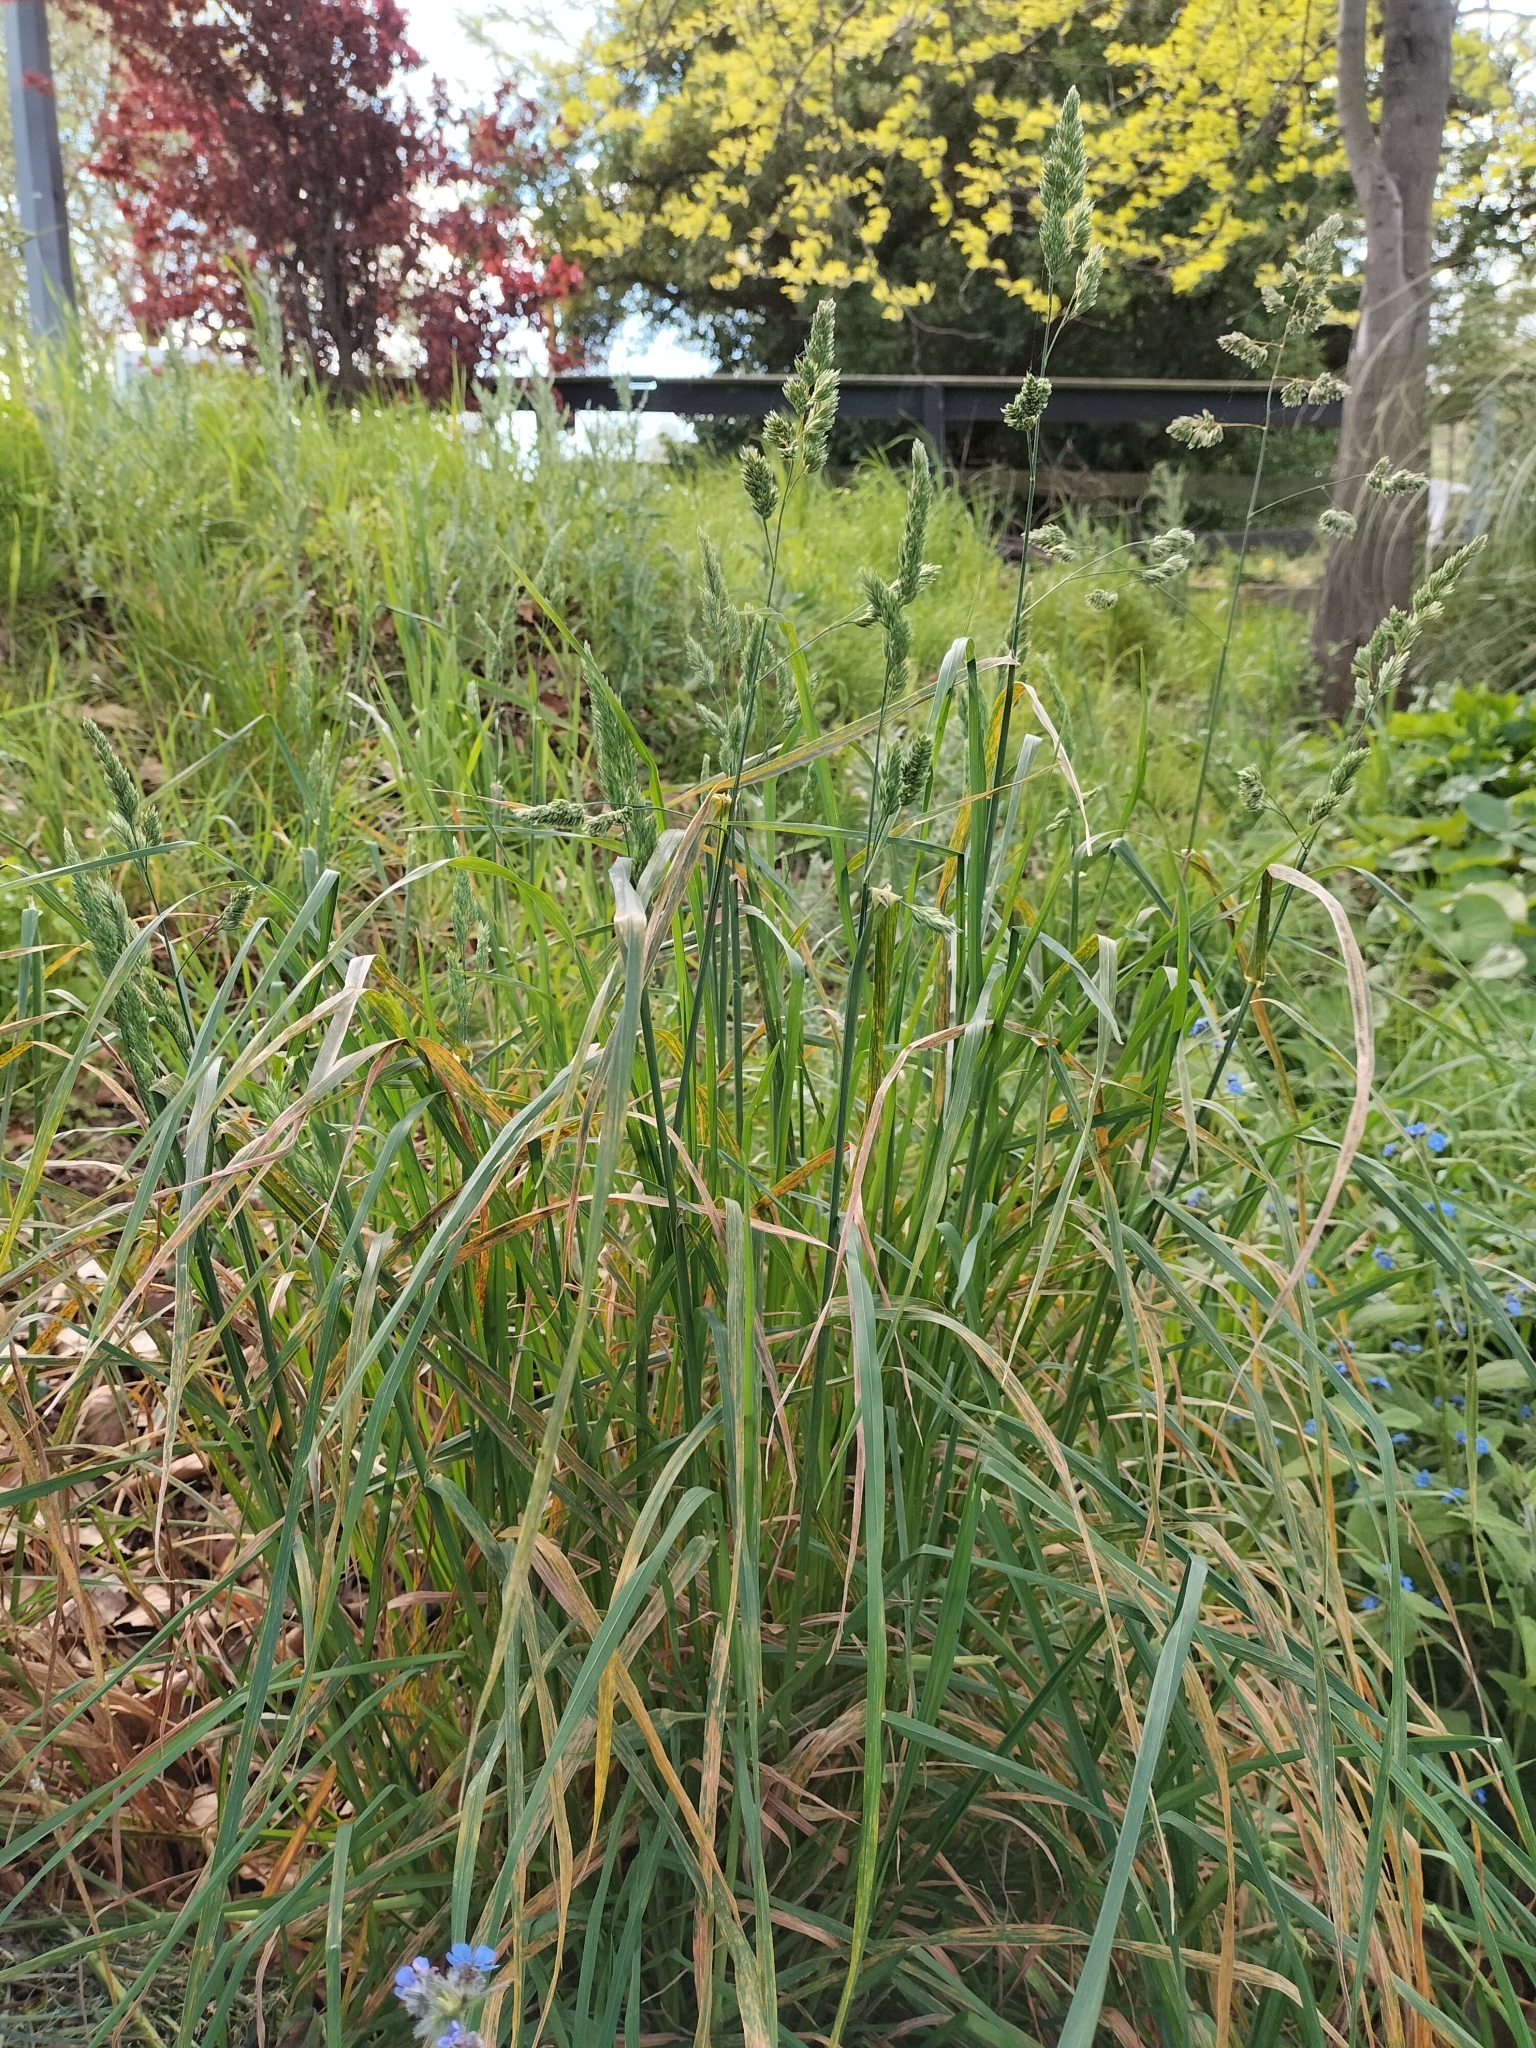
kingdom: Plantae
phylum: Tracheophyta
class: Liliopsida
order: Poales
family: Poaceae
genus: Dactylis
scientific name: Dactylis glomerata
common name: Orchardgrass
